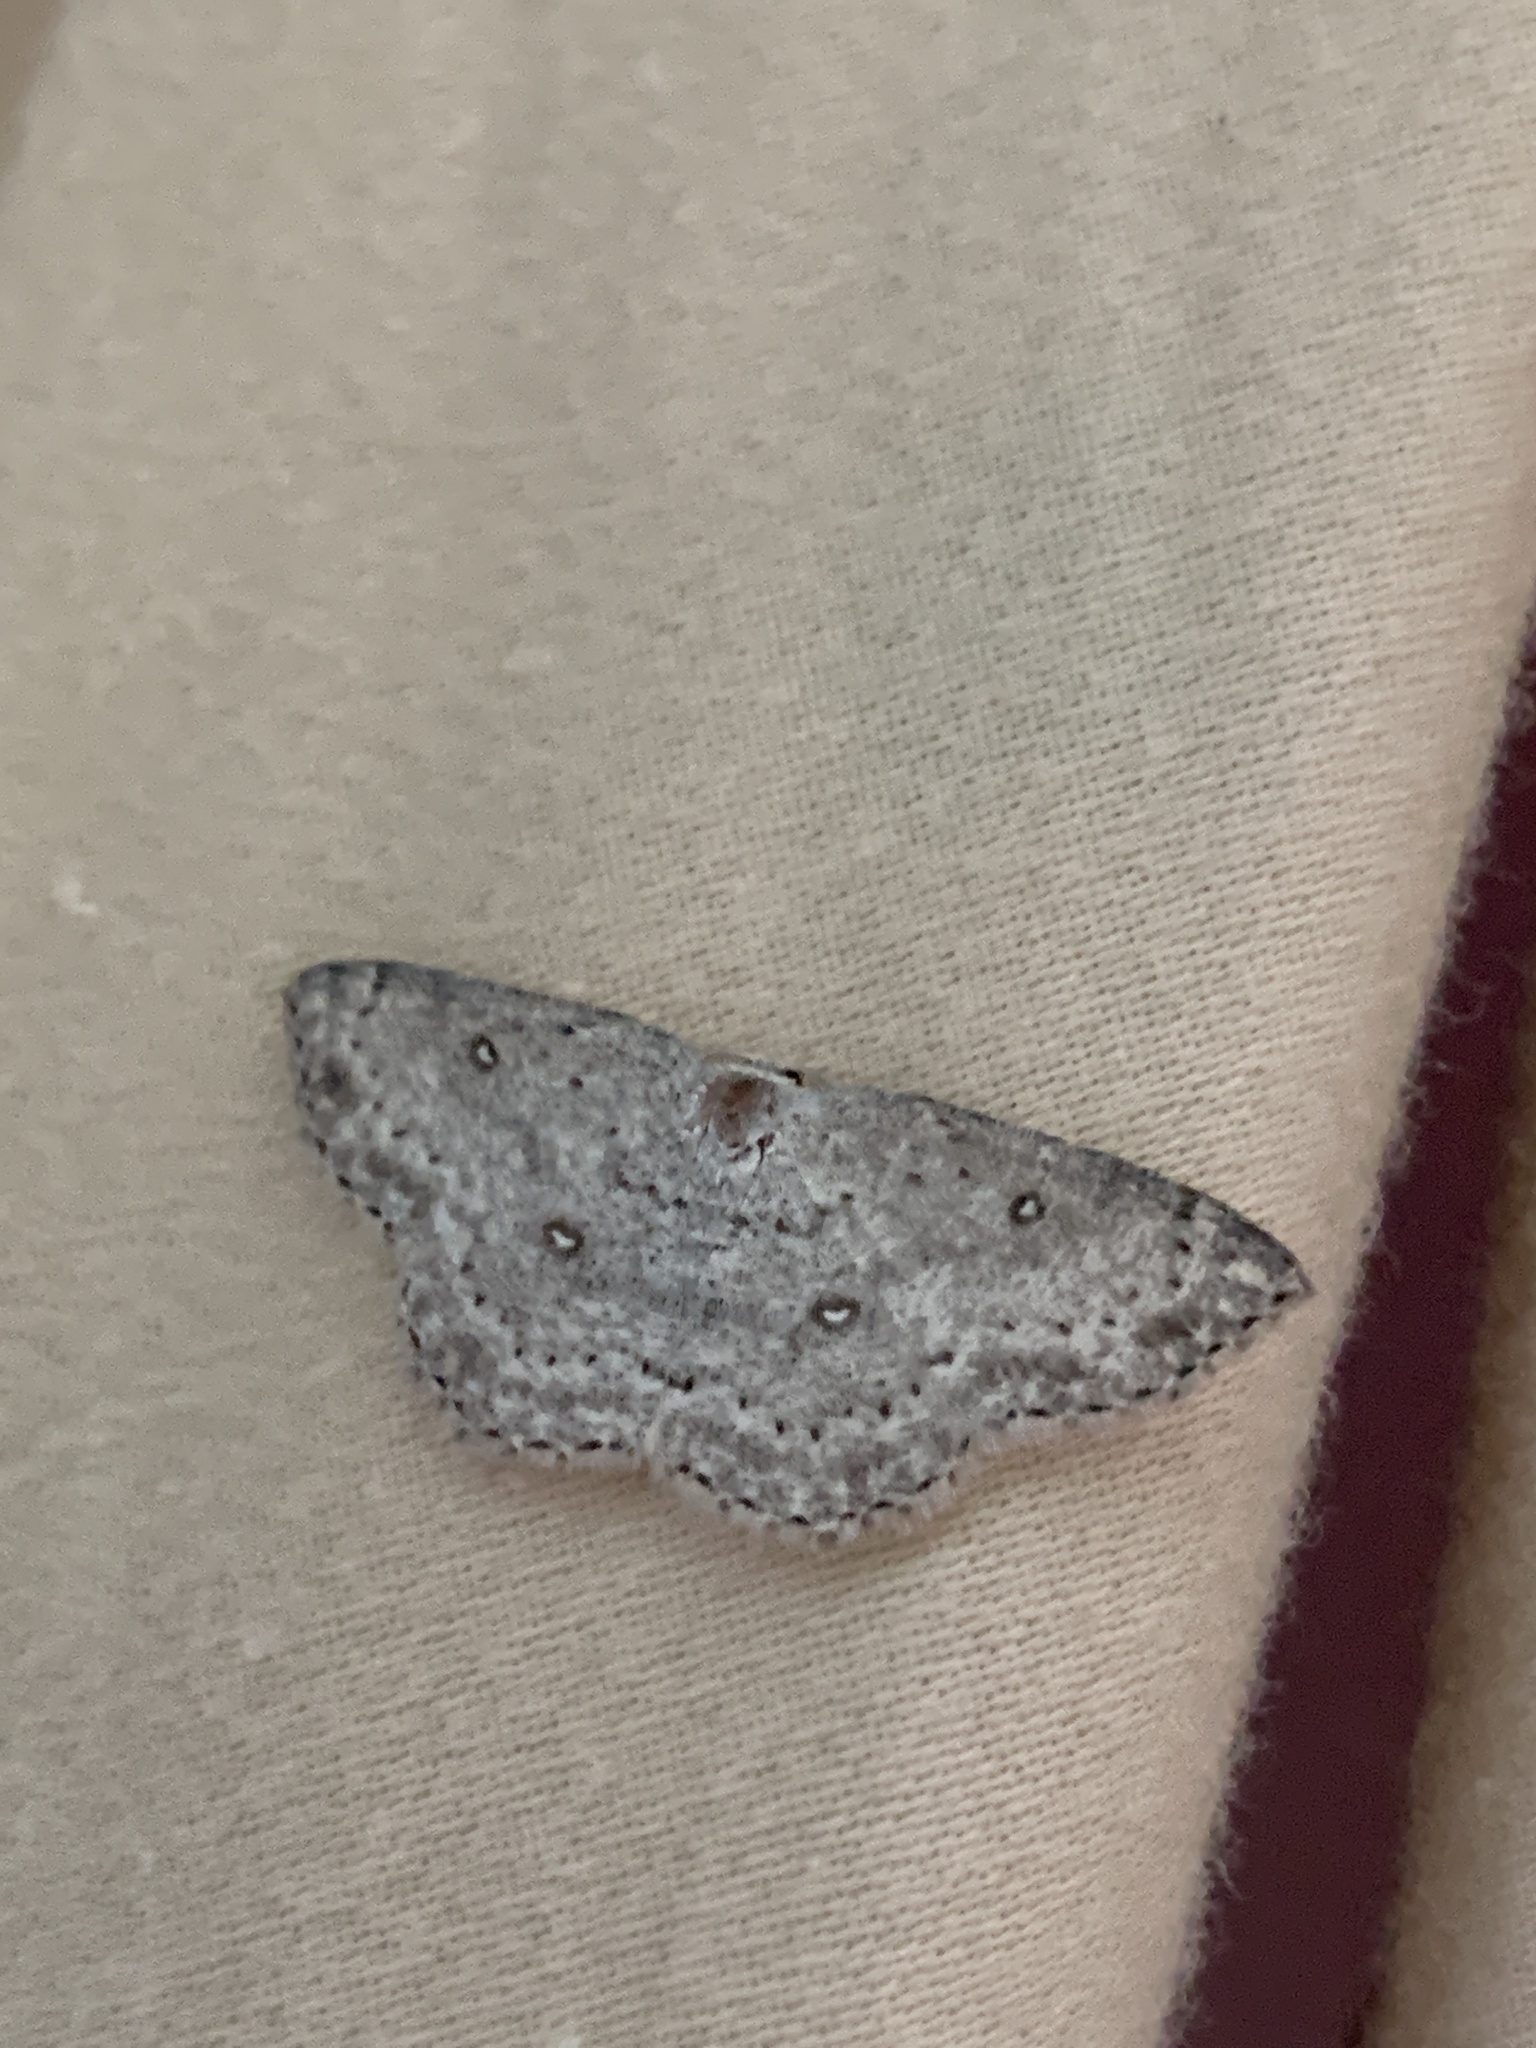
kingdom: Animalia
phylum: Arthropoda
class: Insecta
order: Lepidoptera
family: Geometridae
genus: Cyclophora
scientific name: Cyclophora pendulinaria
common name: Sweet fern geometer
